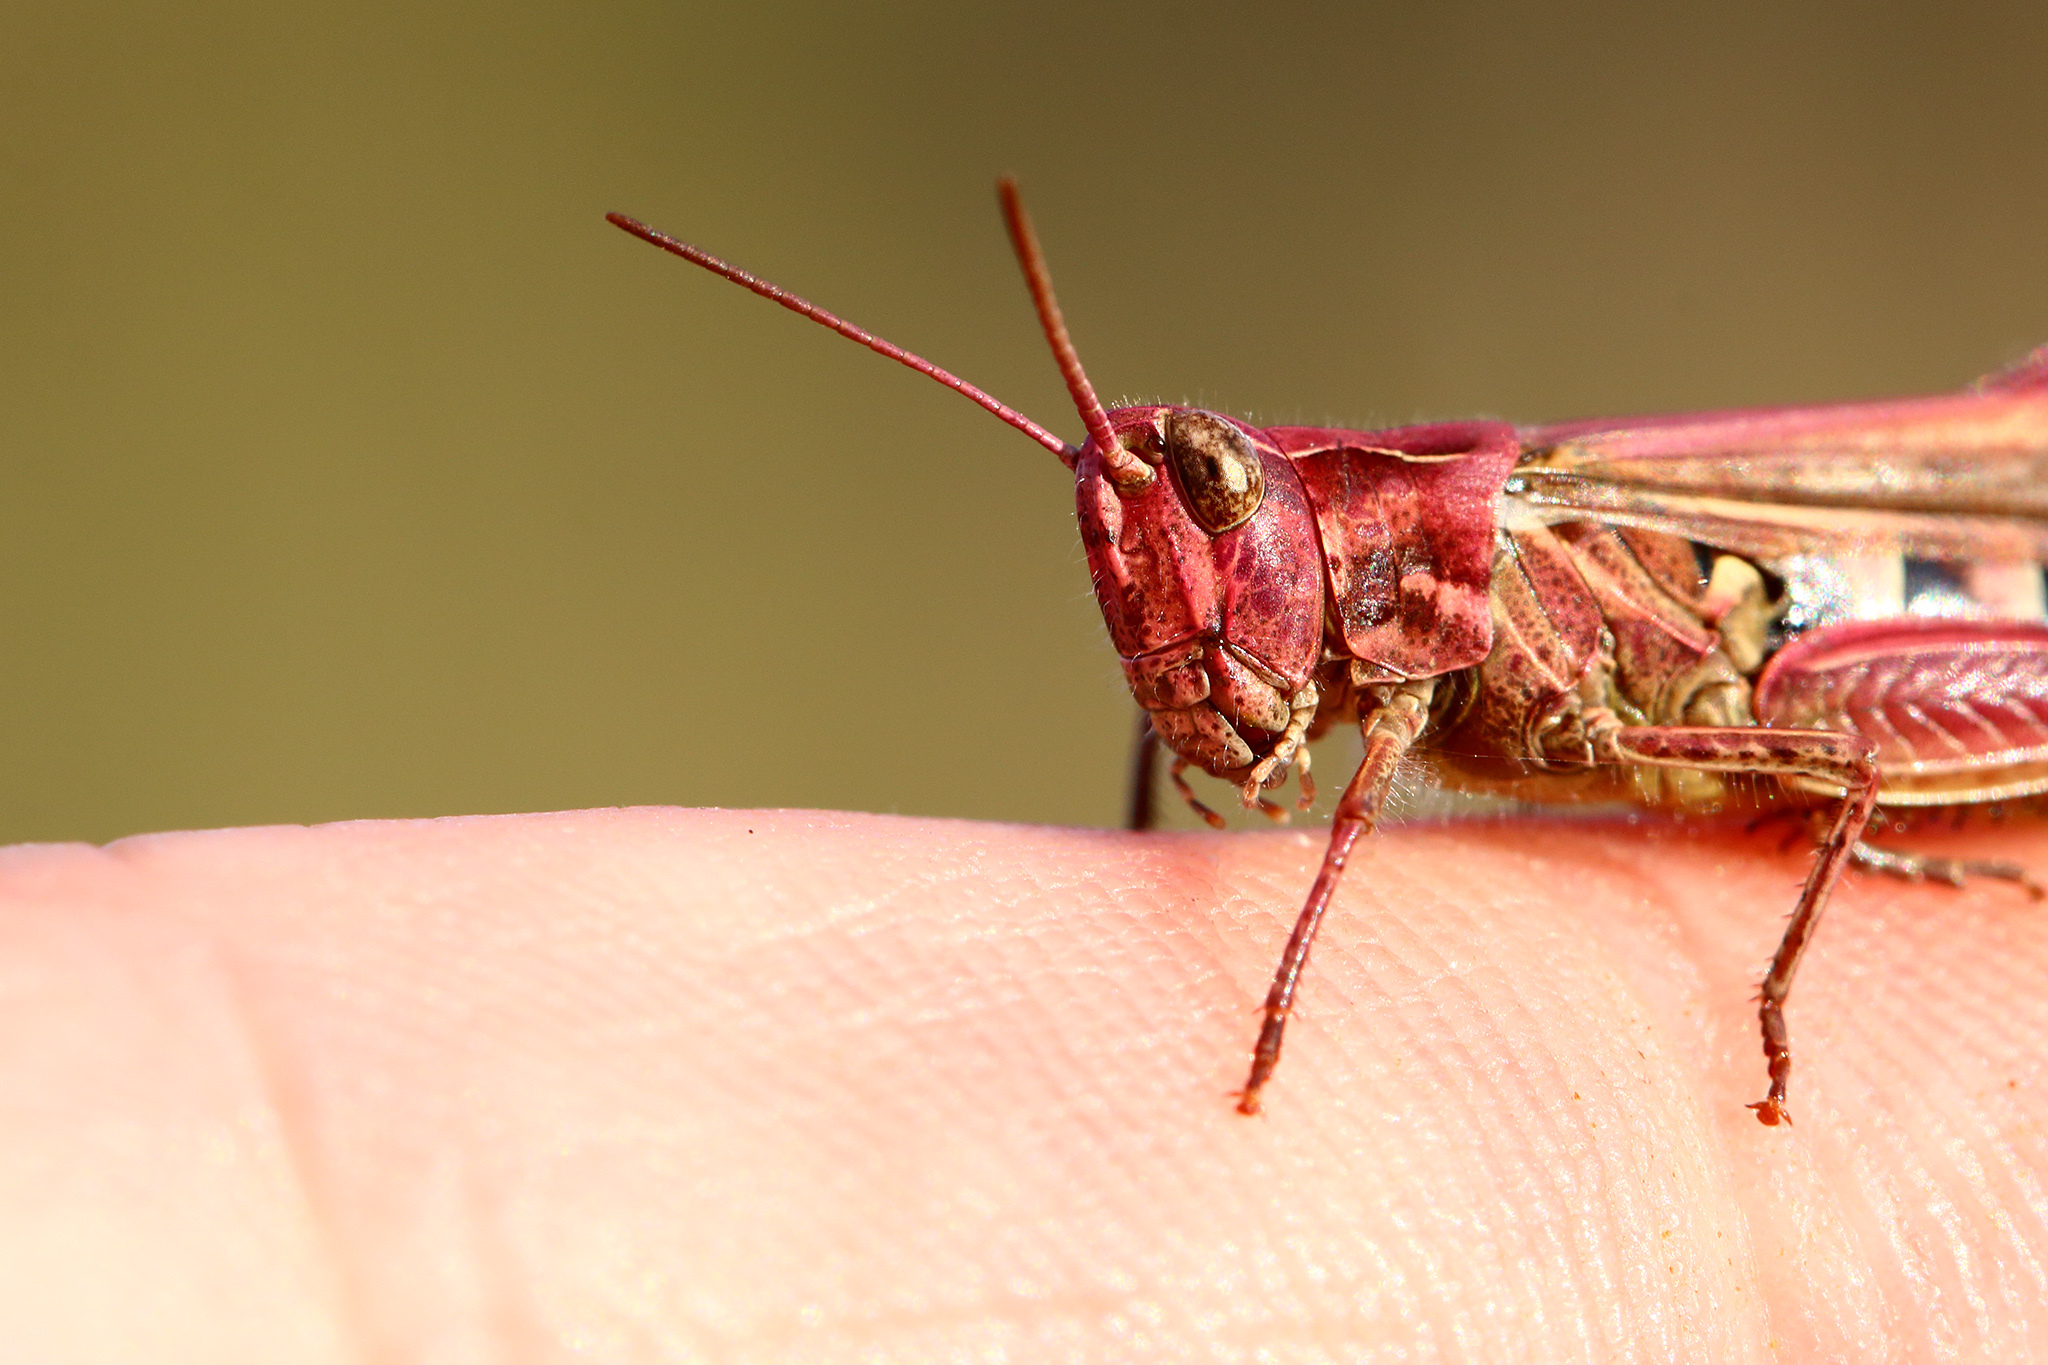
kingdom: Animalia
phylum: Arthropoda
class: Insecta
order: Orthoptera
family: Acrididae
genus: Chorthippus
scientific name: Chorthippus brunneus
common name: Field grasshopper
